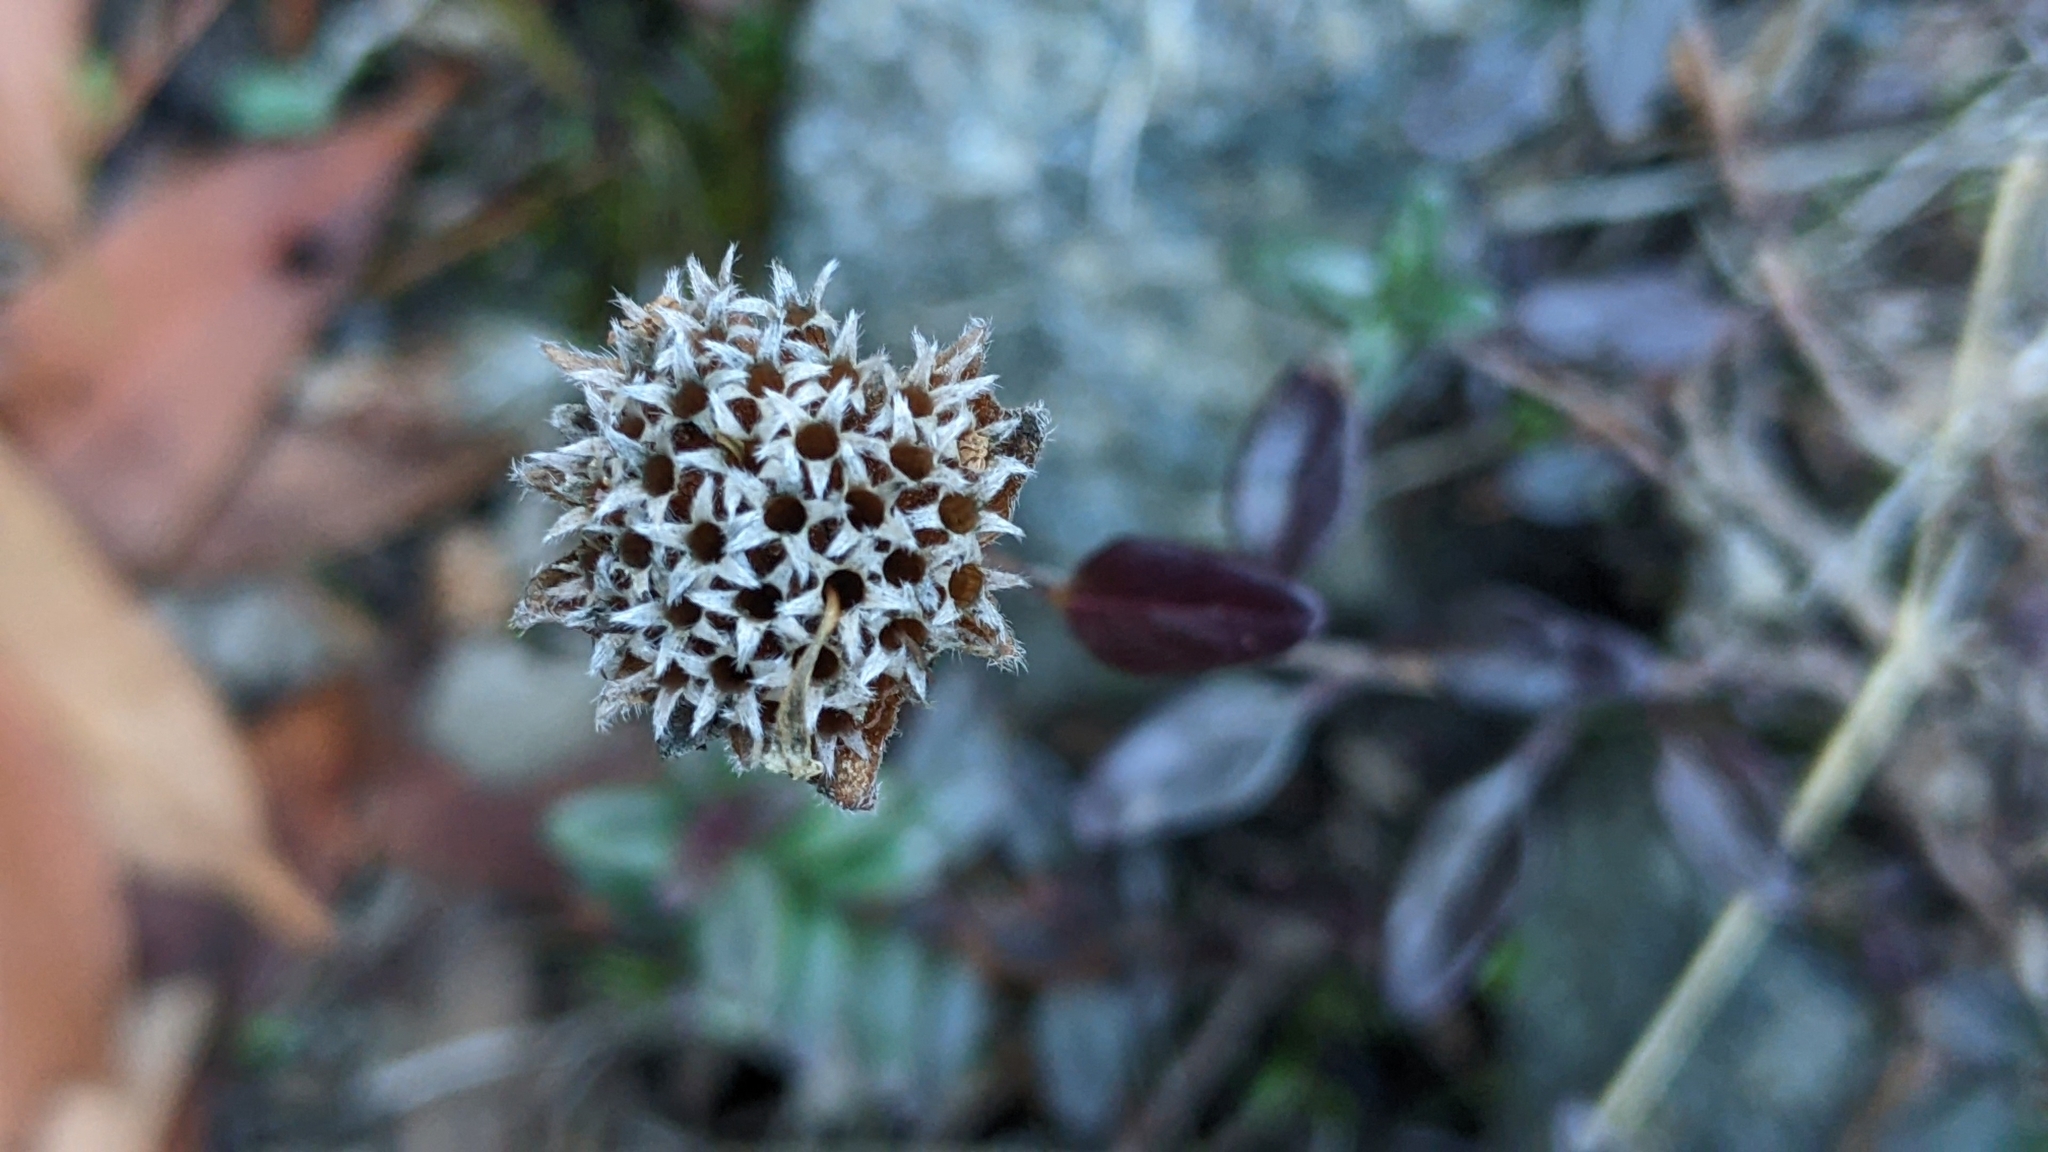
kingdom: Plantae
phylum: Tracheophyta
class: Magnoliopsida
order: Lamiales
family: Lamiaceae
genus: Monardella
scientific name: Monardella purpurea
